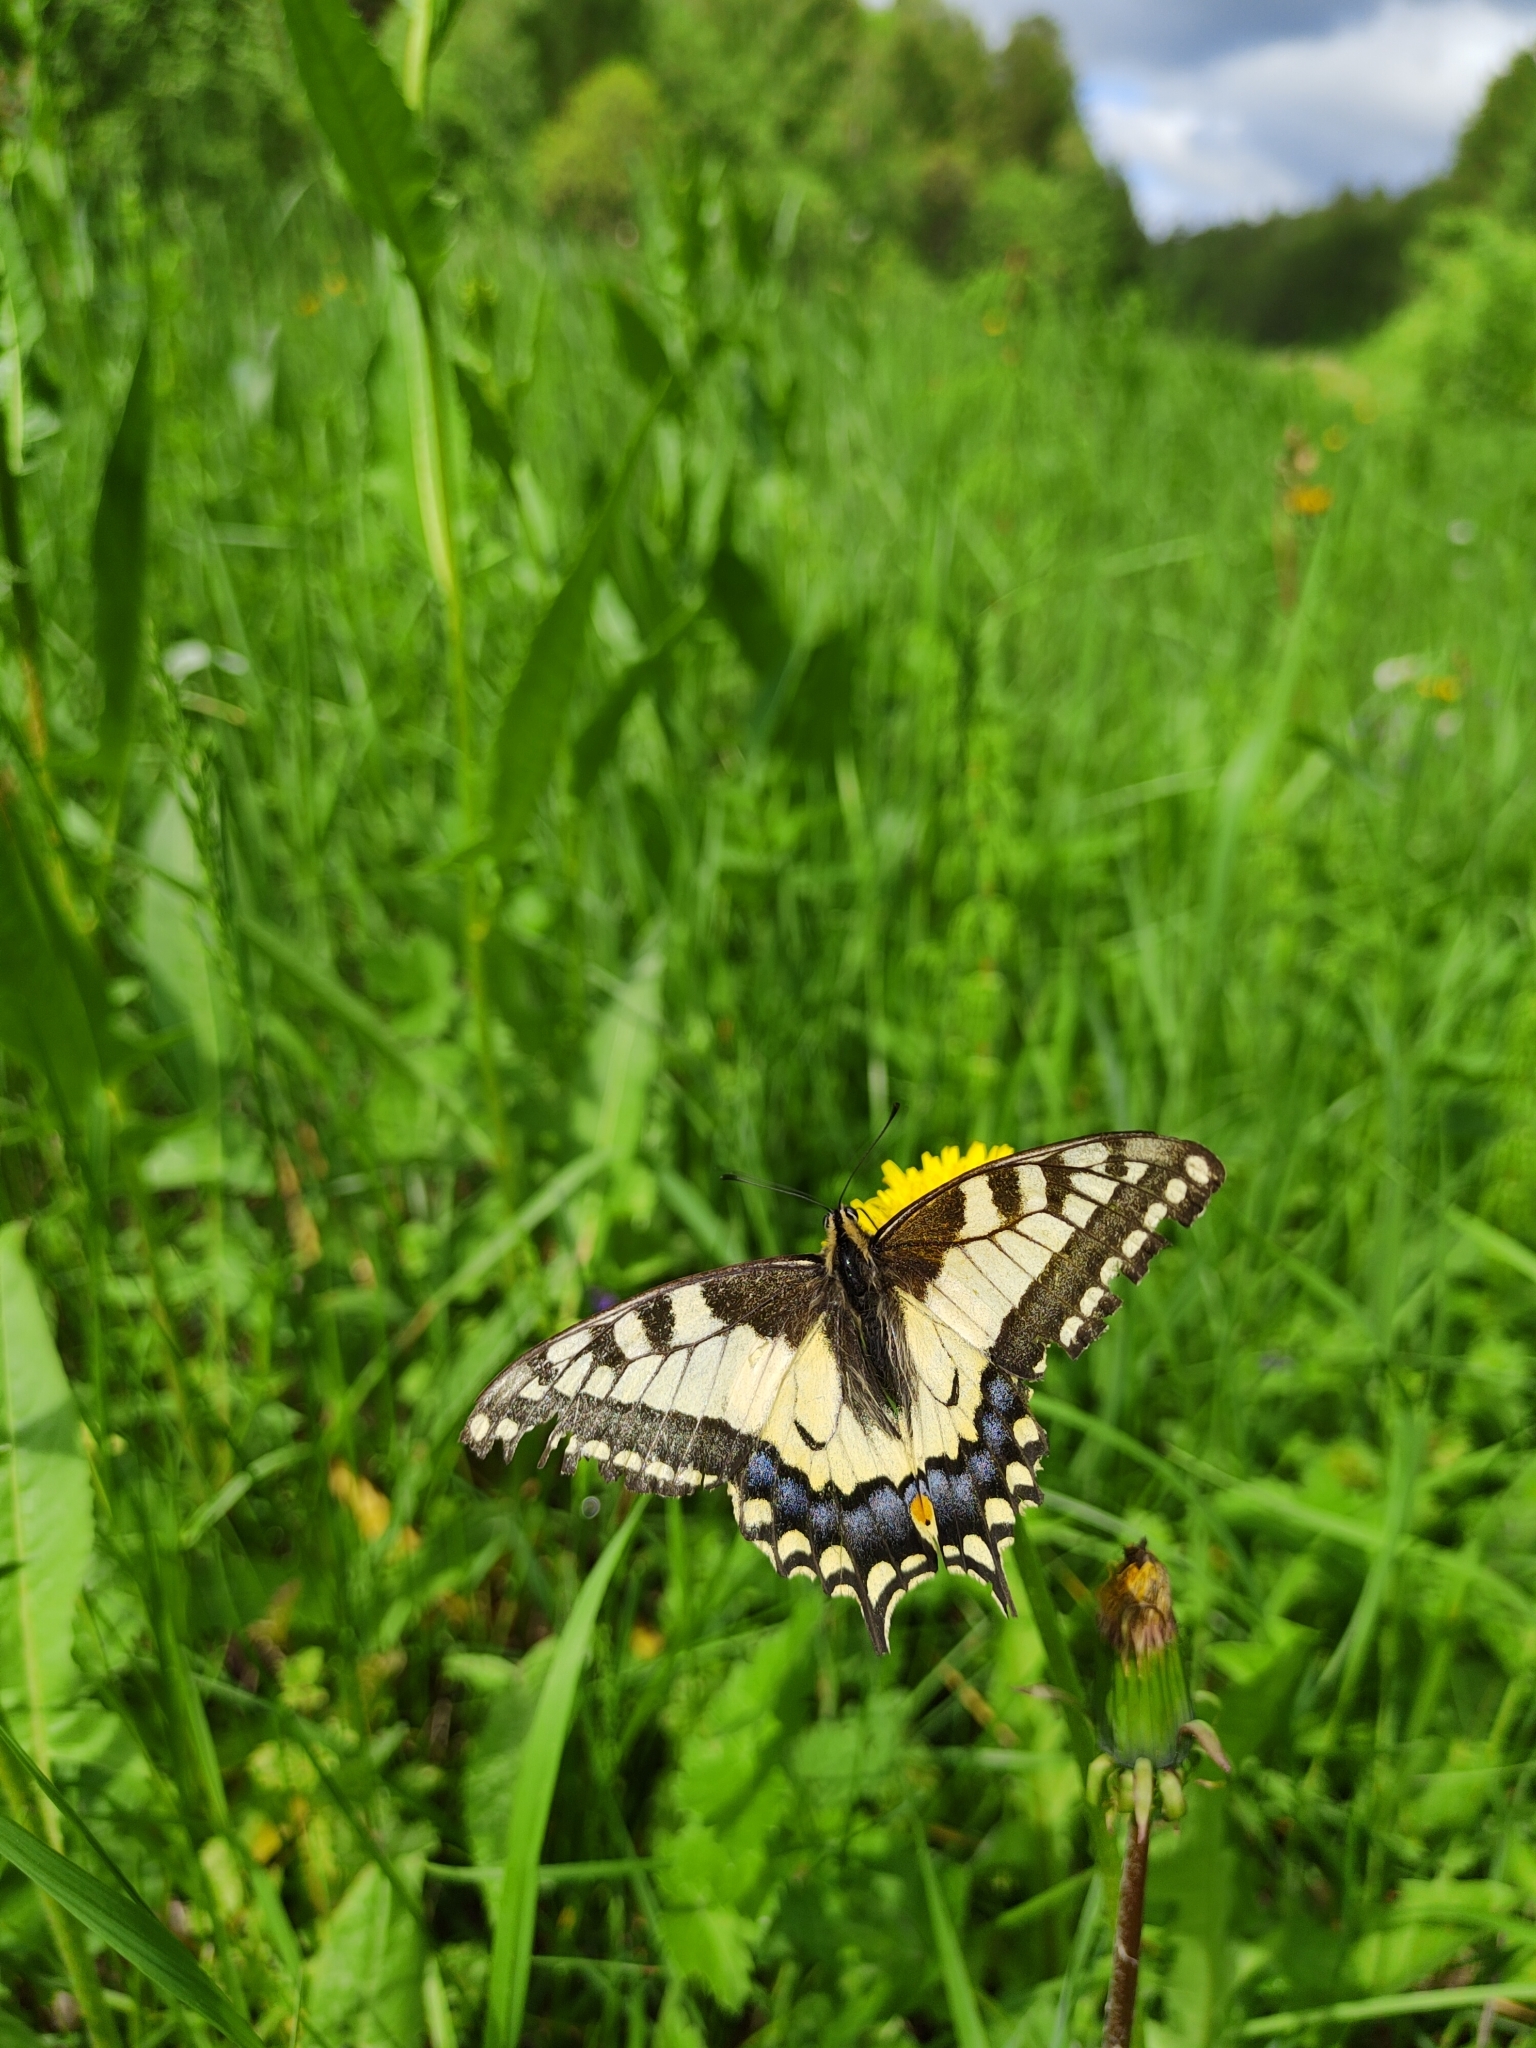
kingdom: Animalia
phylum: Arthropoda
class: Insecta
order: Lepidoptera
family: Papilionidae
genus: Papilio
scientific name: Papilio machaon
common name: Swallowtail
